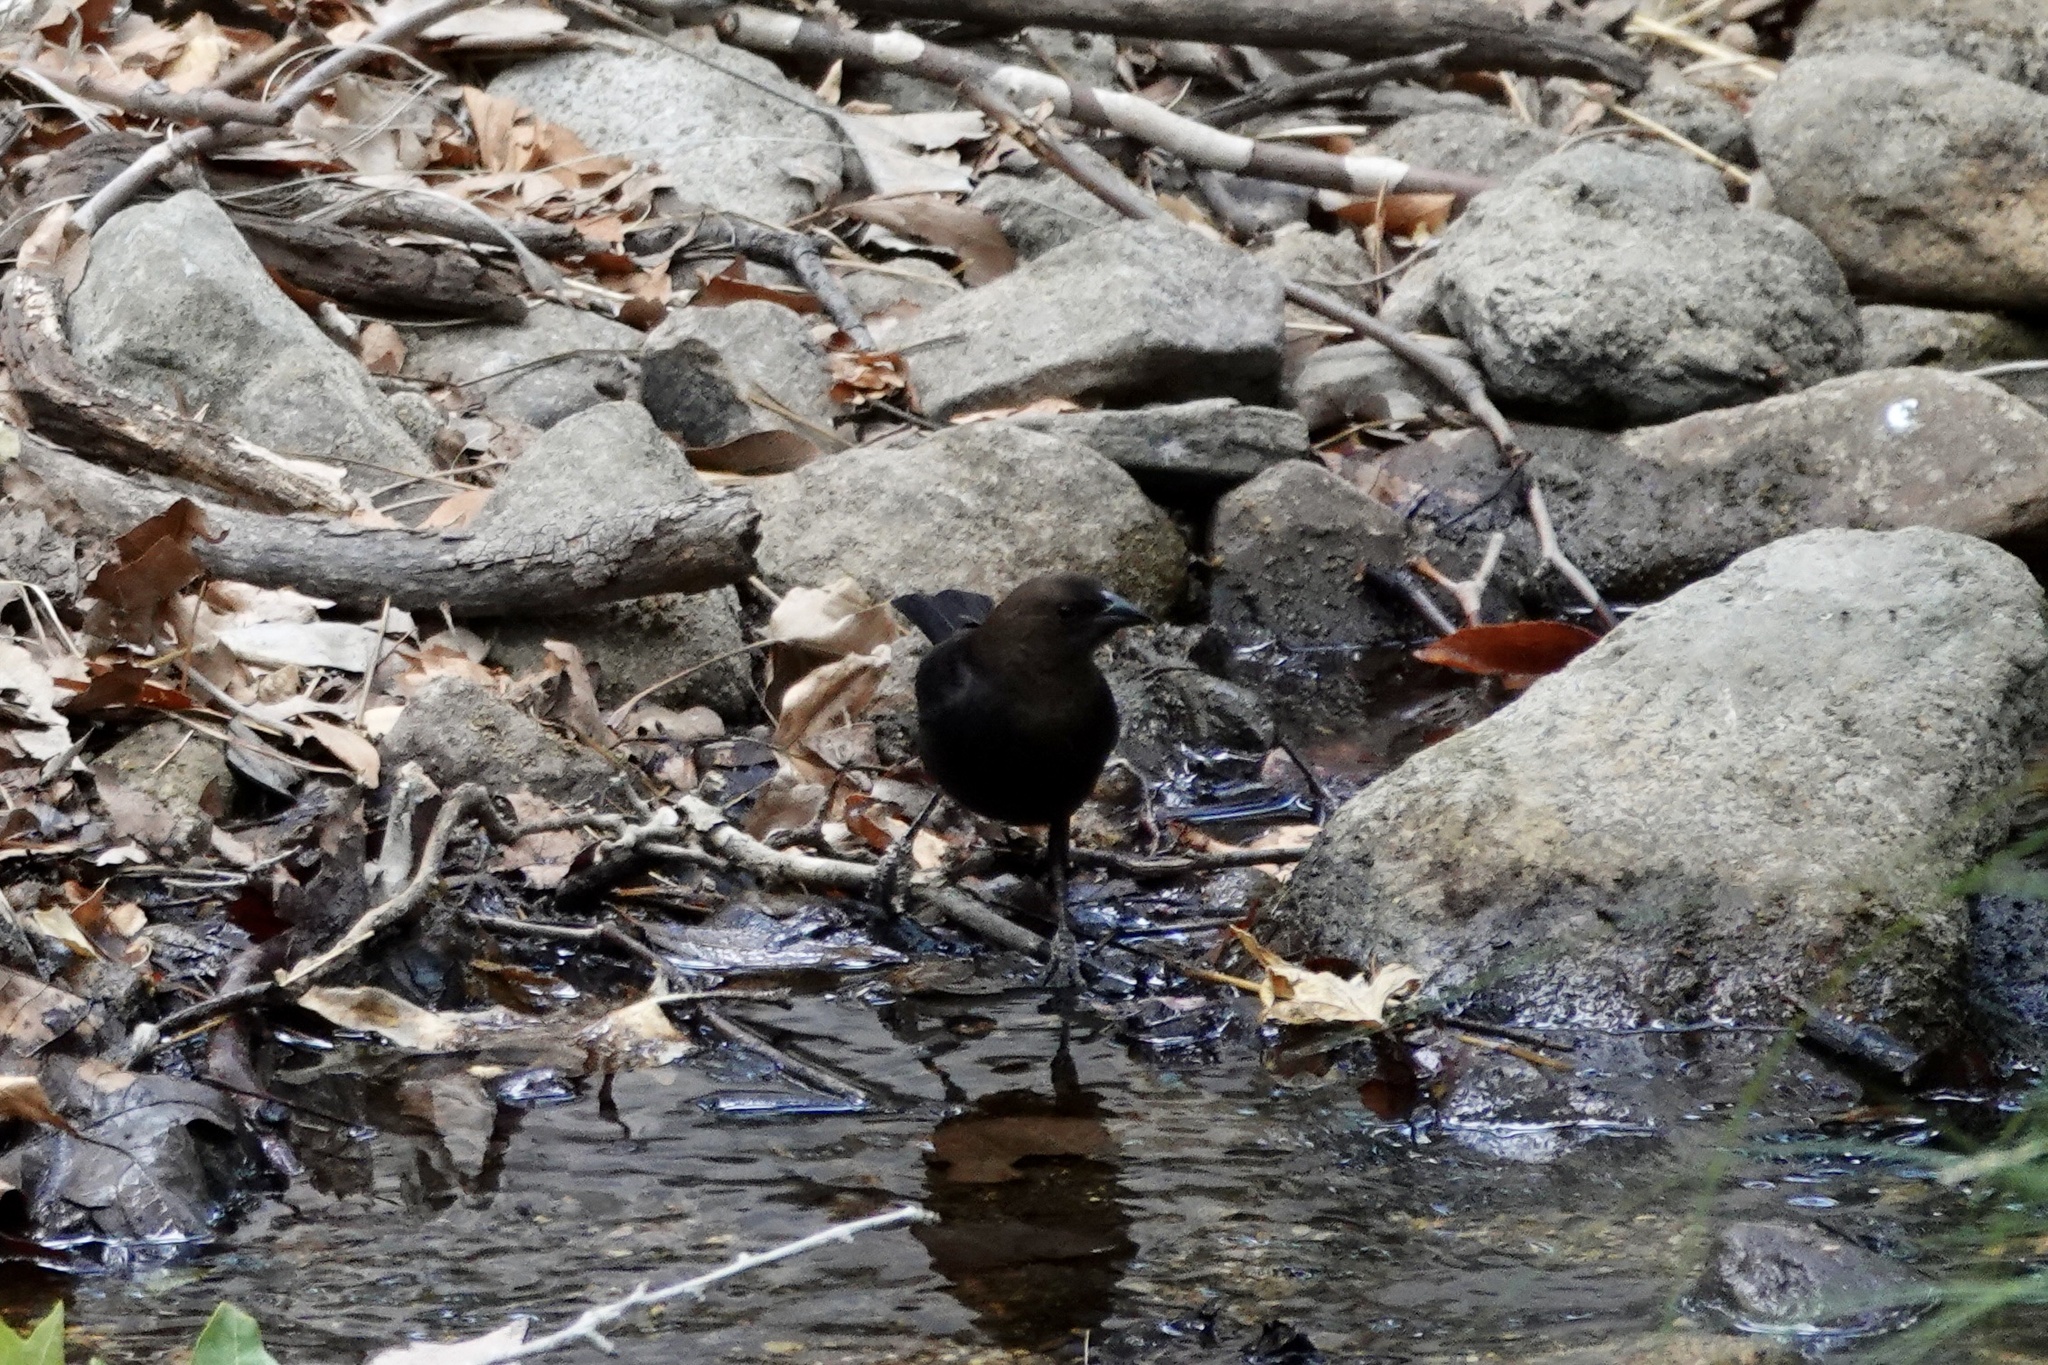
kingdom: Animalia
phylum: Chordata
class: Aves
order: Passeriformes
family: Icteridae
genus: Molothrus
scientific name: Molothrus ater
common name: Brown-headed cowbird
